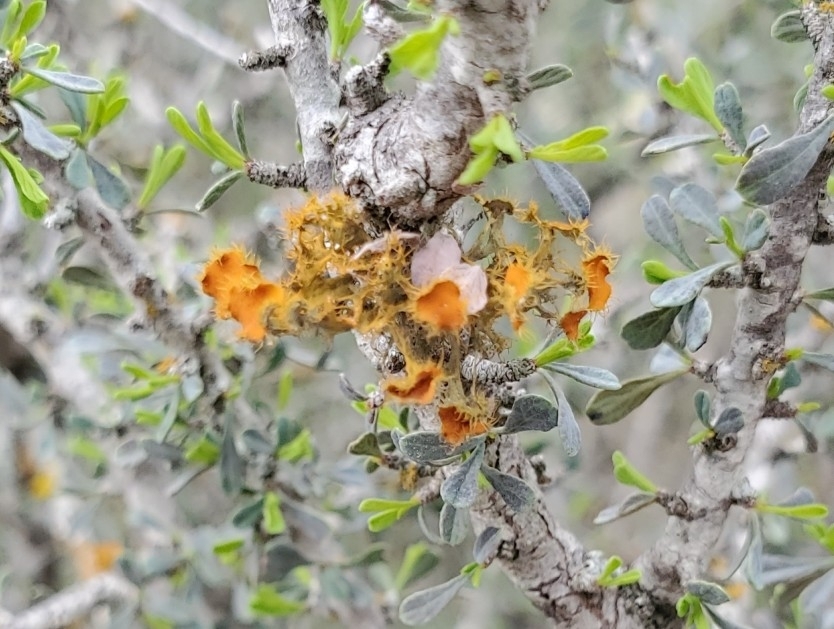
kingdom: Fungi
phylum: Ascomycota
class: Lecanoromycetes
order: Teloschistales
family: Teloschistaceae
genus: Niorma
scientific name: Niorma chrysophthalma
